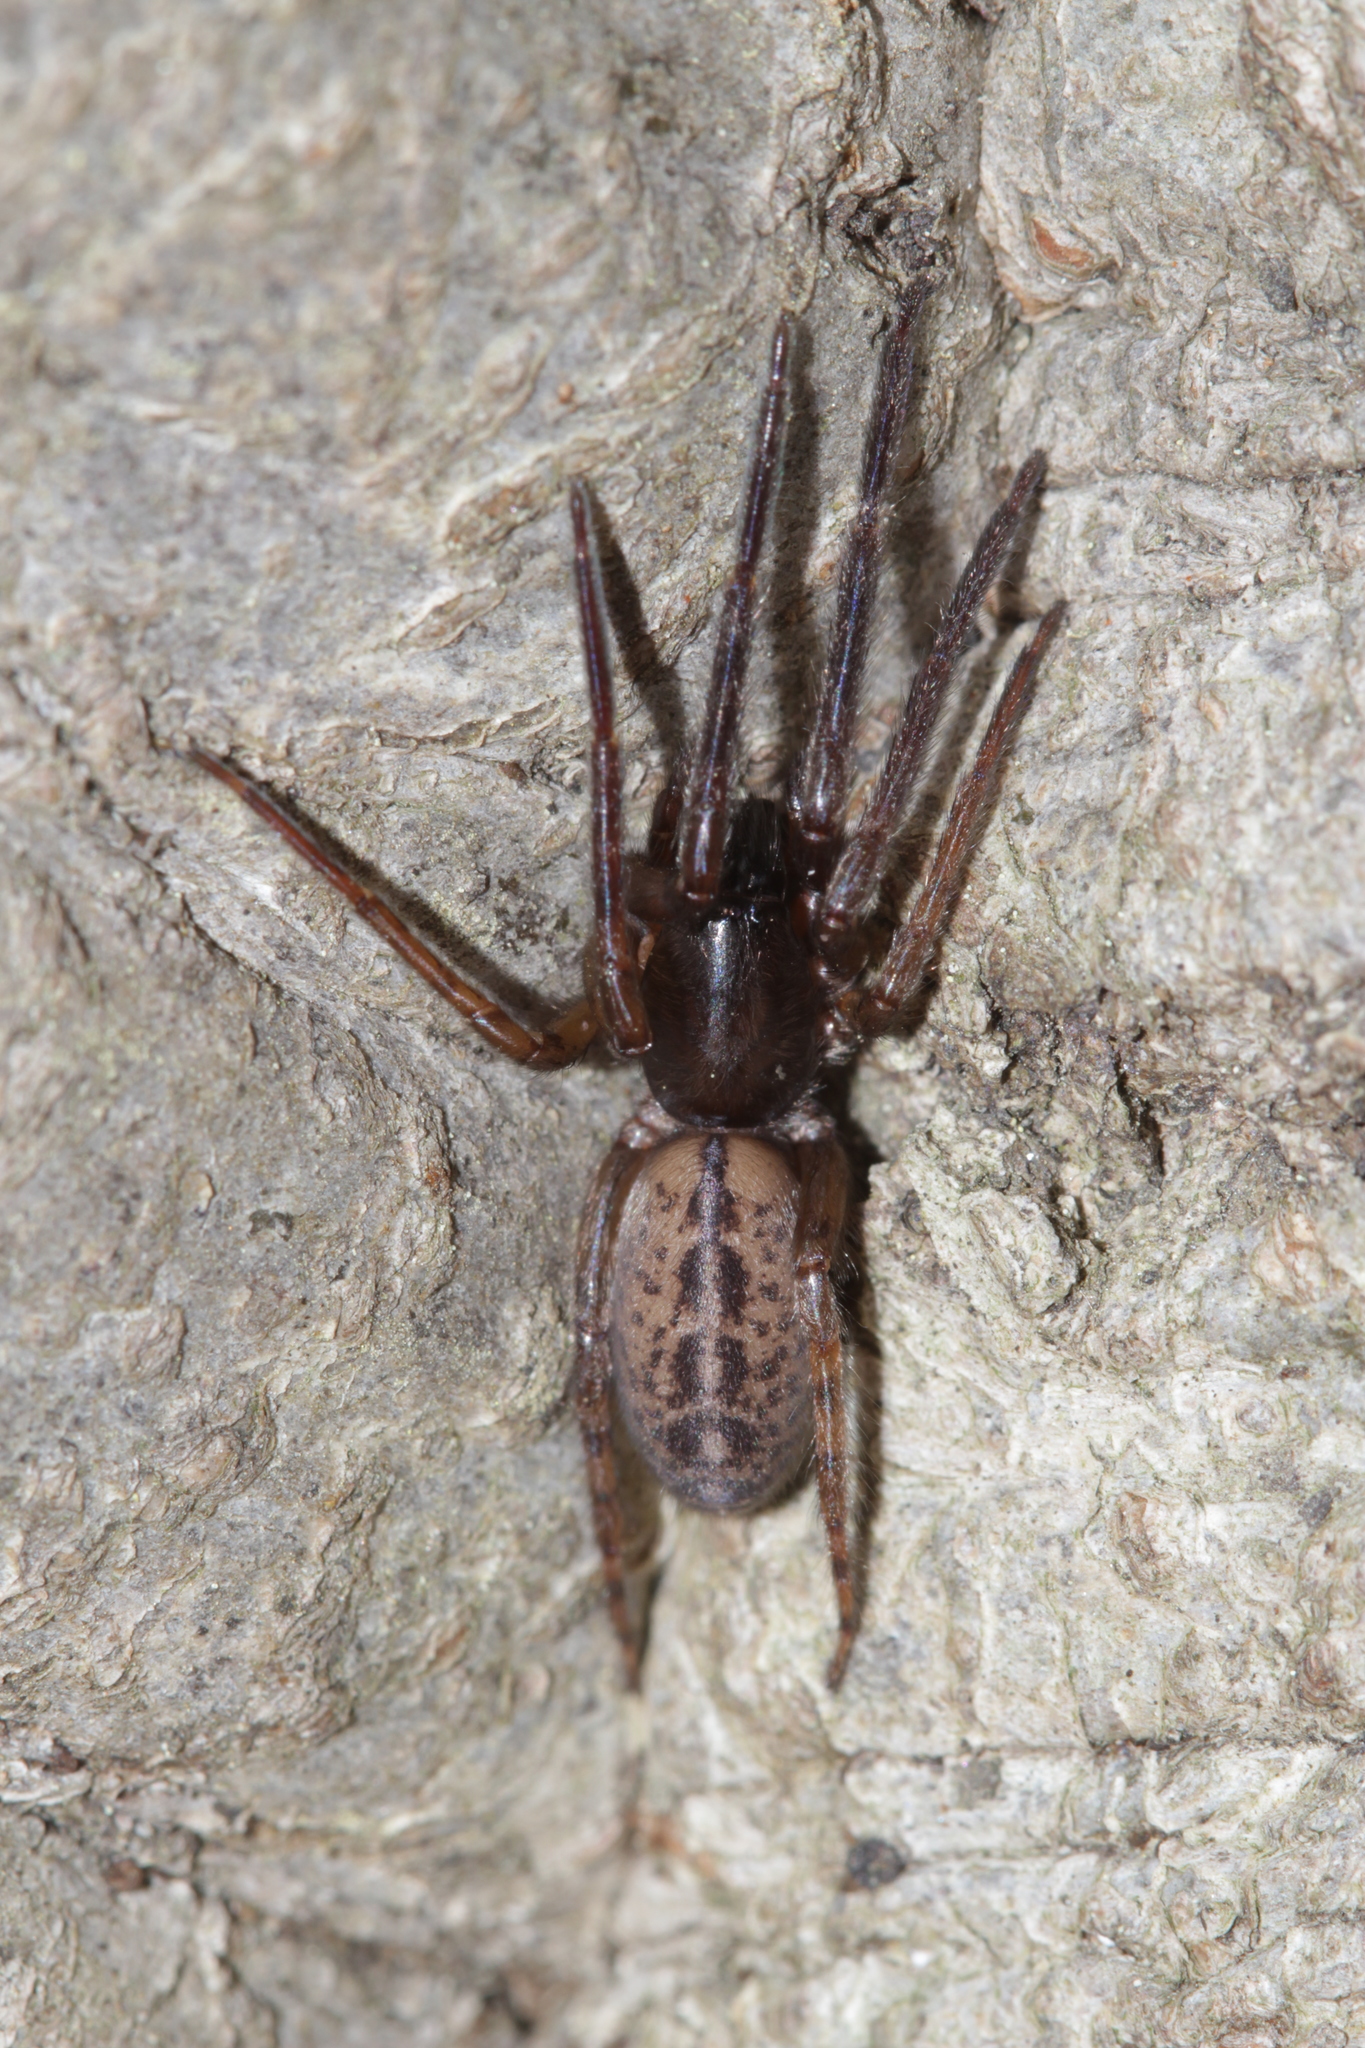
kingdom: Animalia
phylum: Arthropoda
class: Arachnida
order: Araneae
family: Segestriidae
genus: Segestria
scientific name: Segestria bavarica
